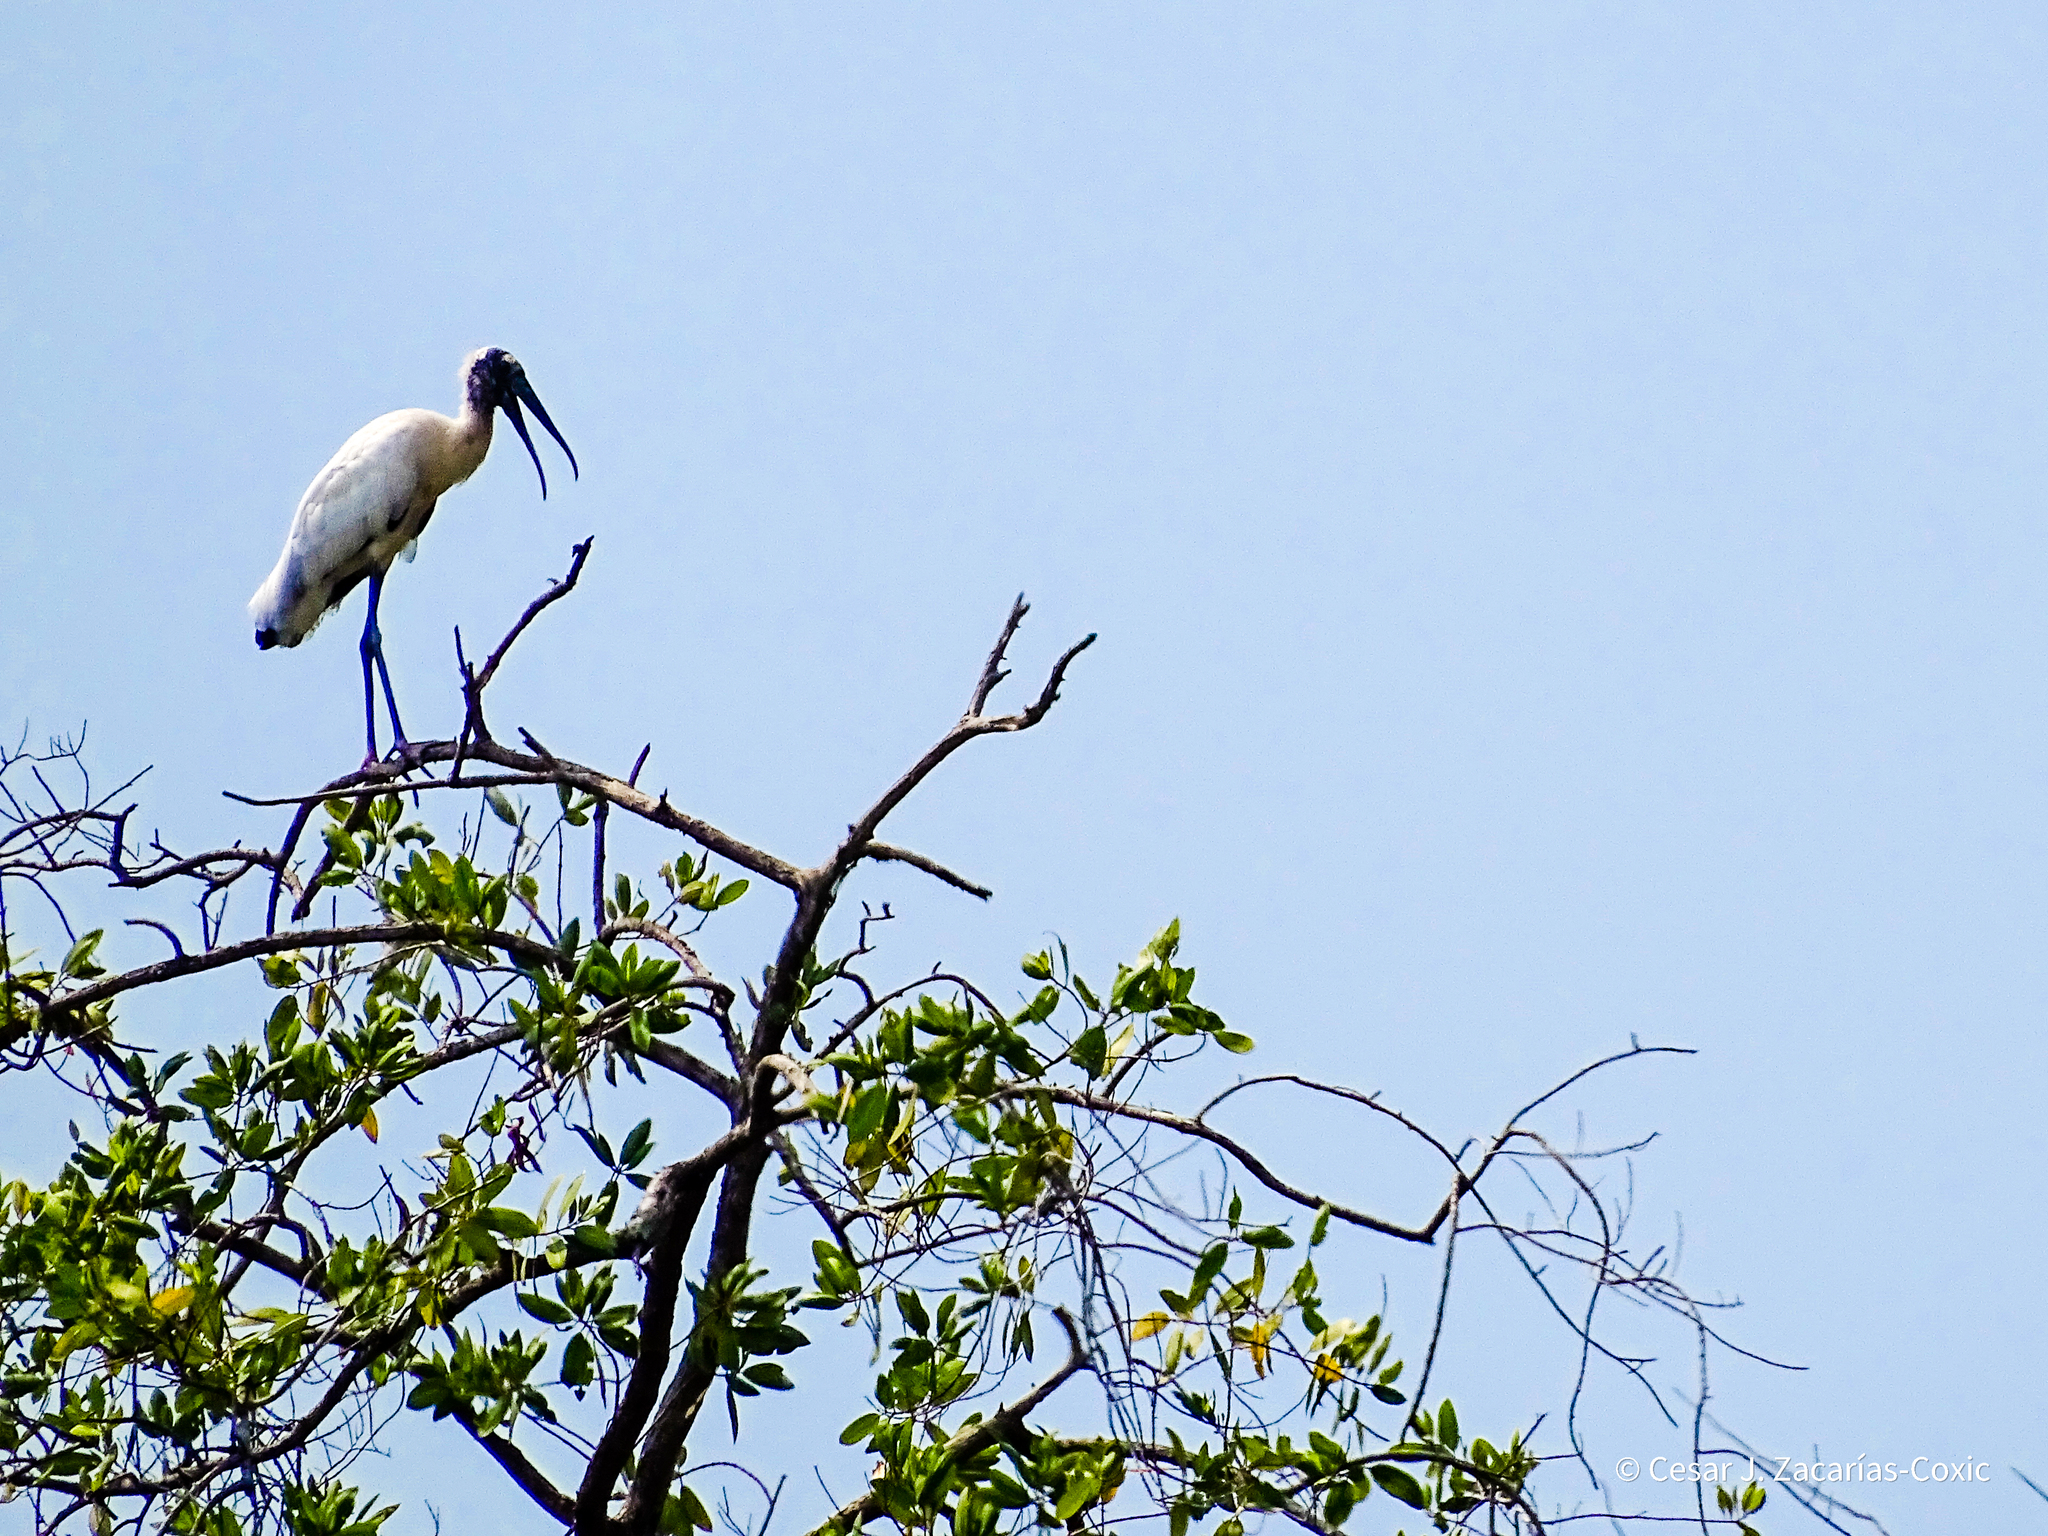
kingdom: Animalia
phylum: Chordata
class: Aves
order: Ciconiiformes
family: Ciconiidae
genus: Mycteria
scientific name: Mycteria americana
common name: Wood stork
